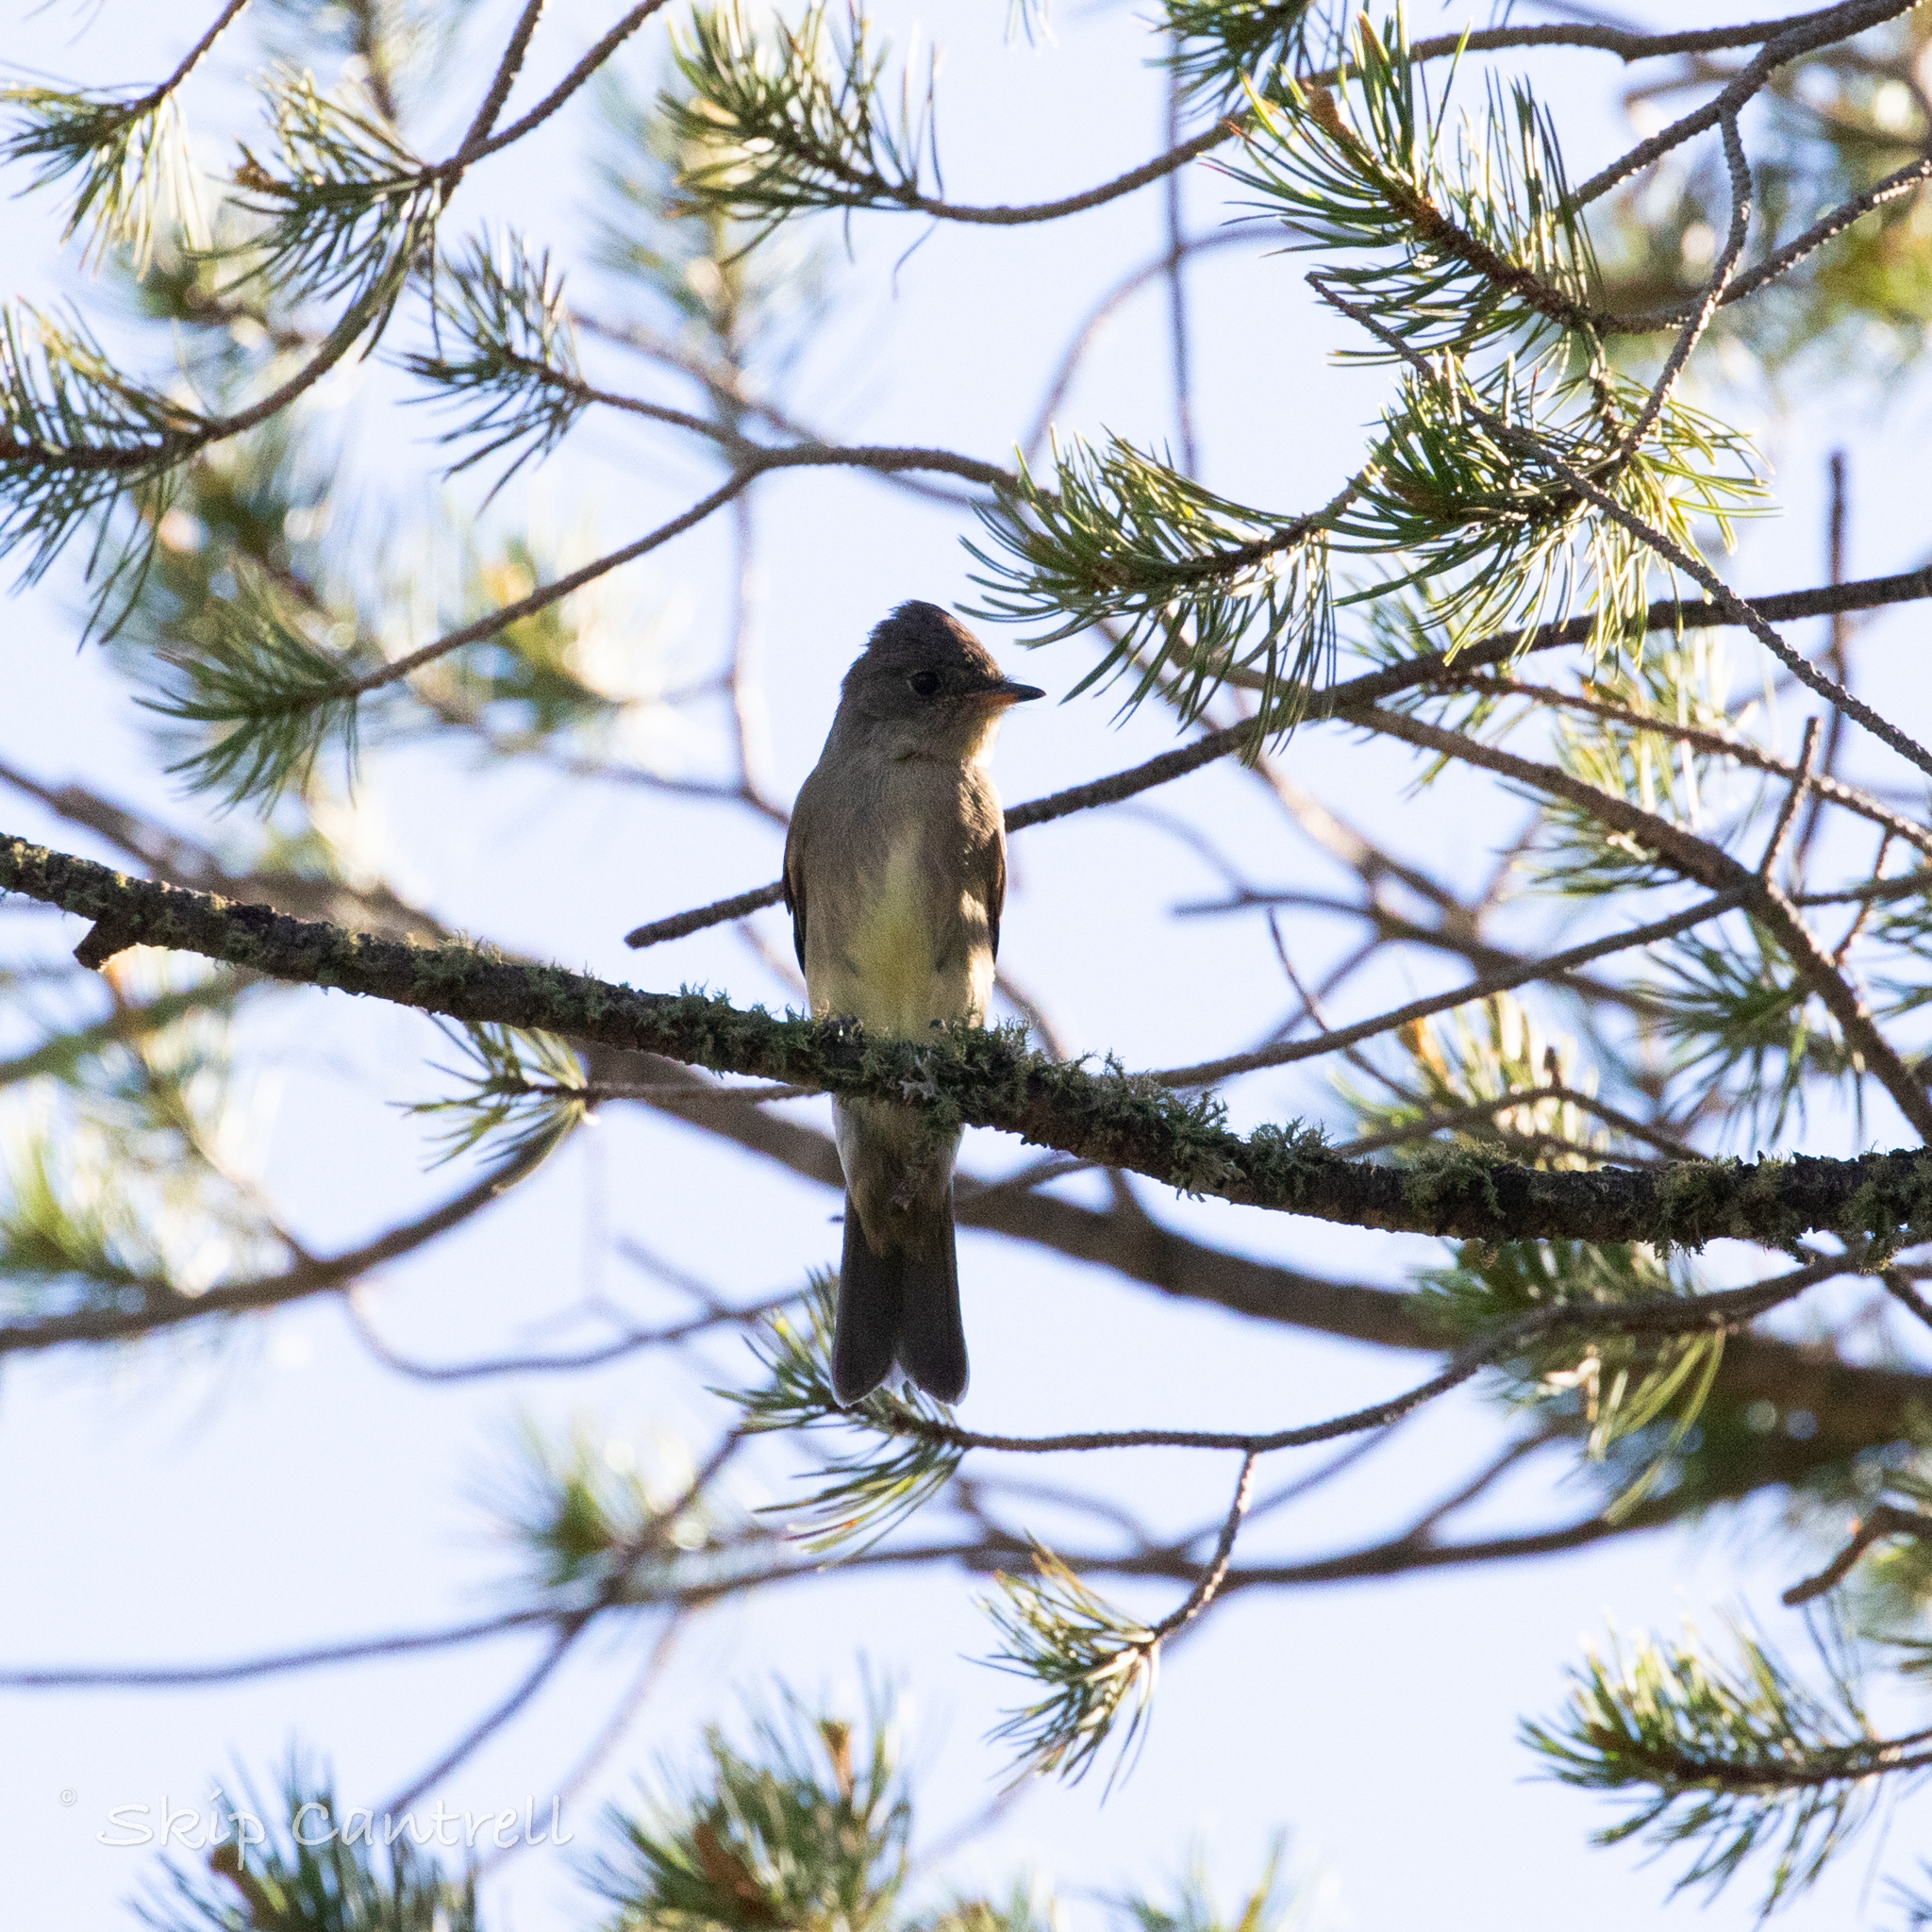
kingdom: Animalia
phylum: Chordata
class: Aves
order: Passeriformes
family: Tyrannidae
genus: Contopus
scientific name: Contopus sordidulus
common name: Western wood-pewee
